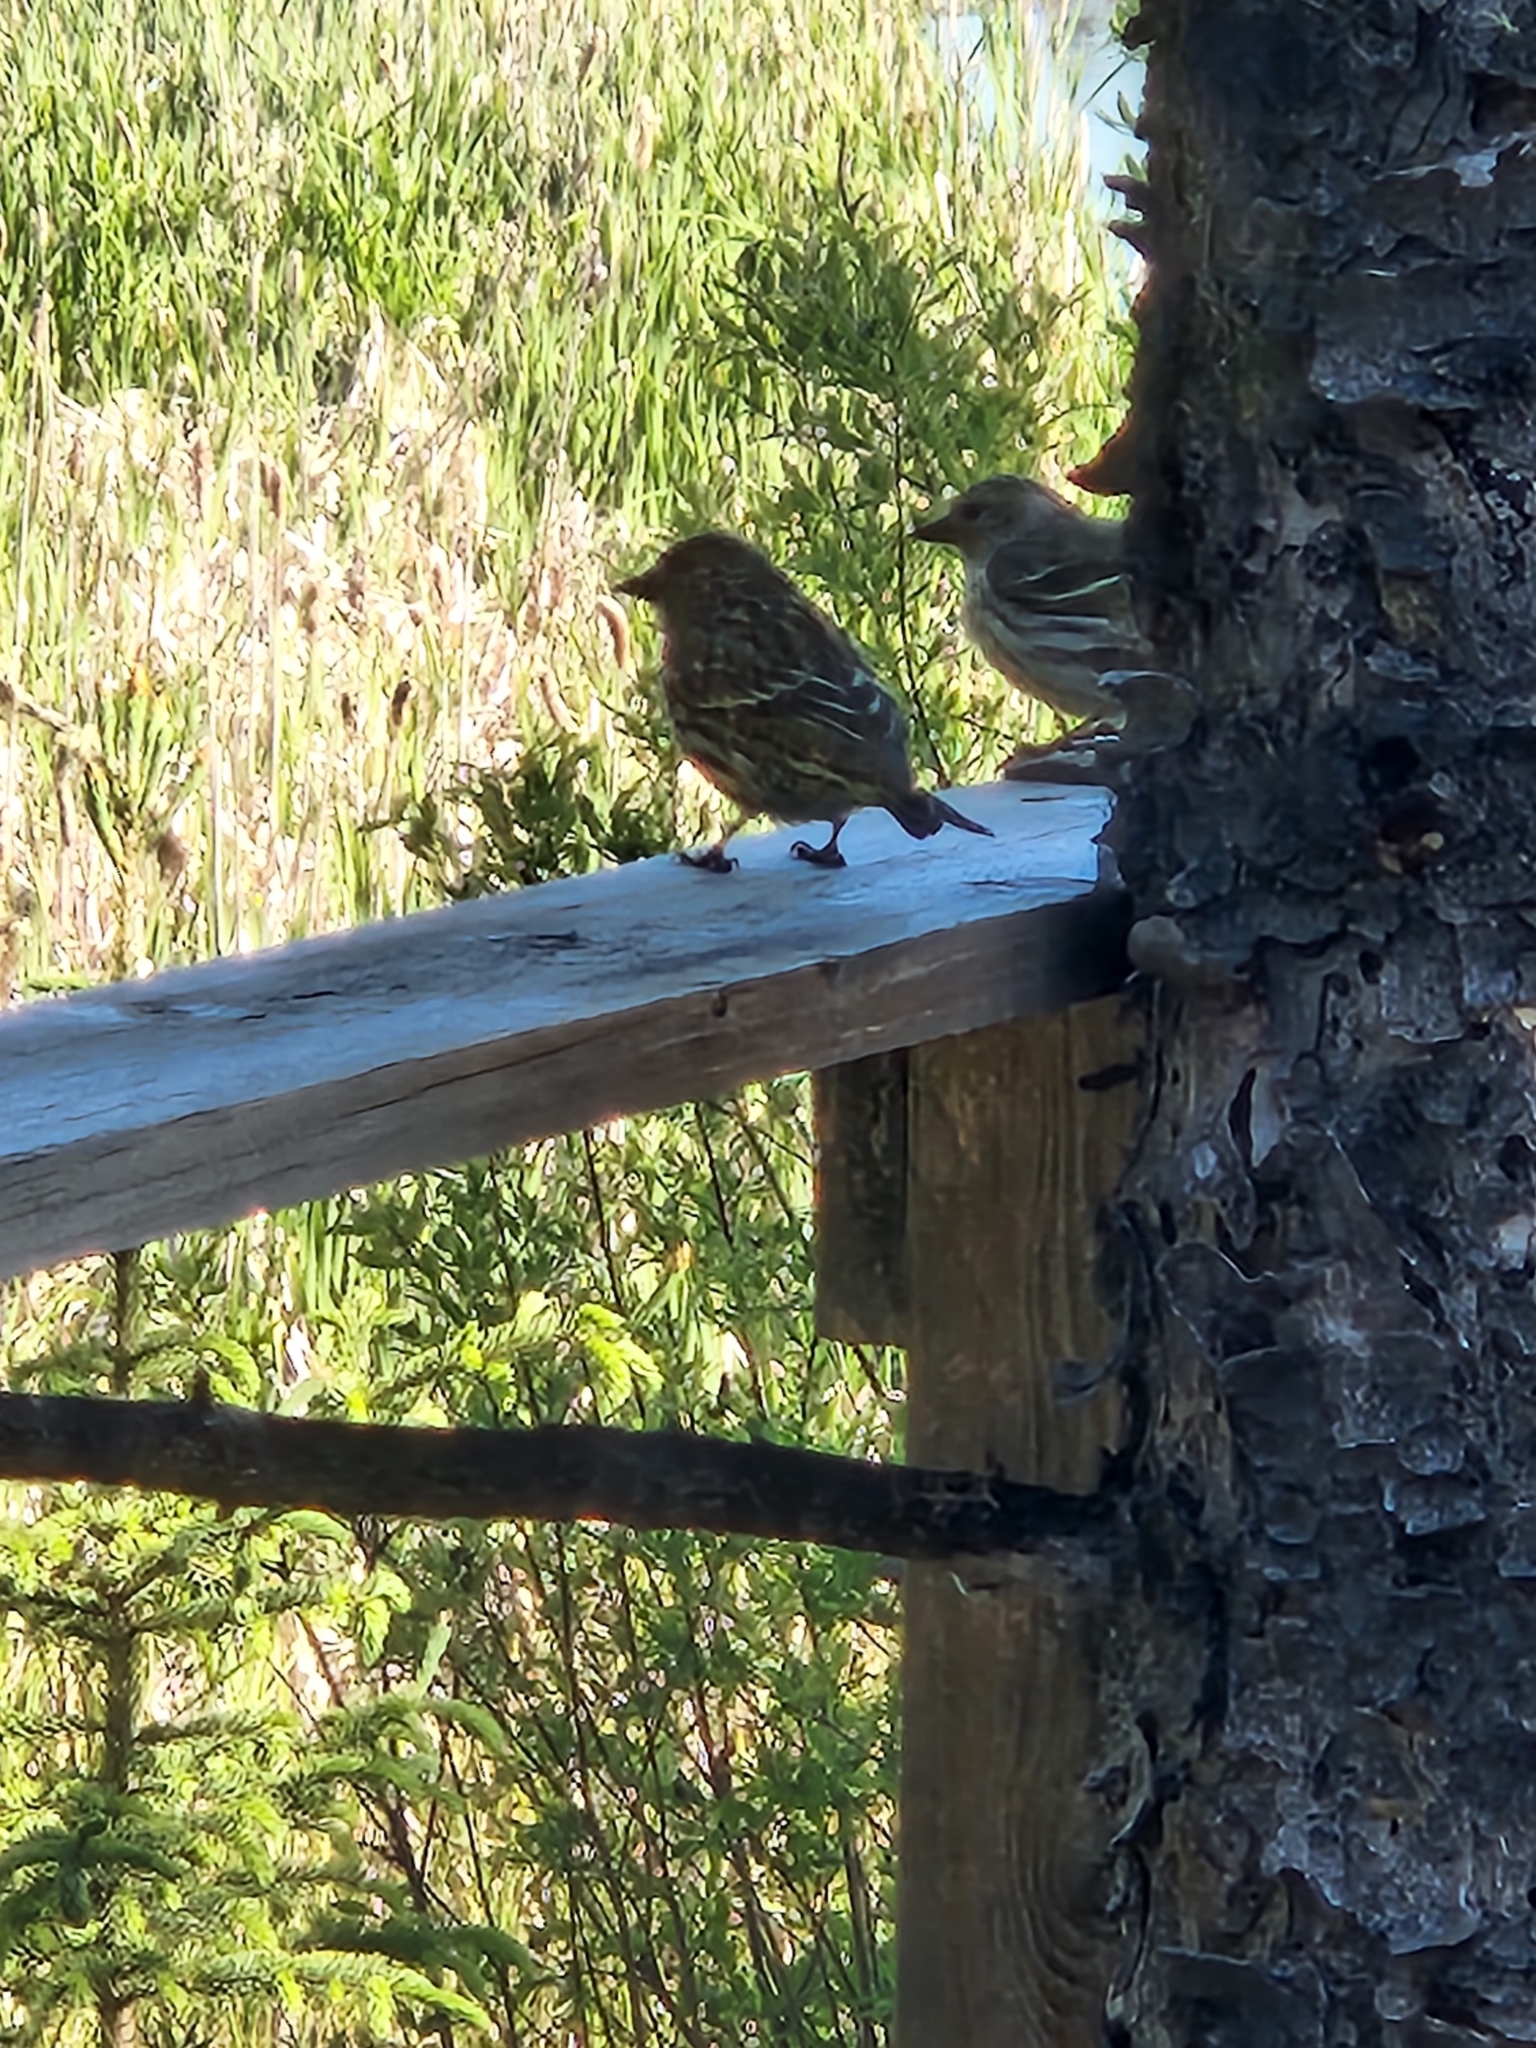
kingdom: Animalia
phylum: Chordata
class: Aves
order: Passeriformes
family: Fringillidae
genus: Spinus
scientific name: Spinus pinus
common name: Pine siskin
